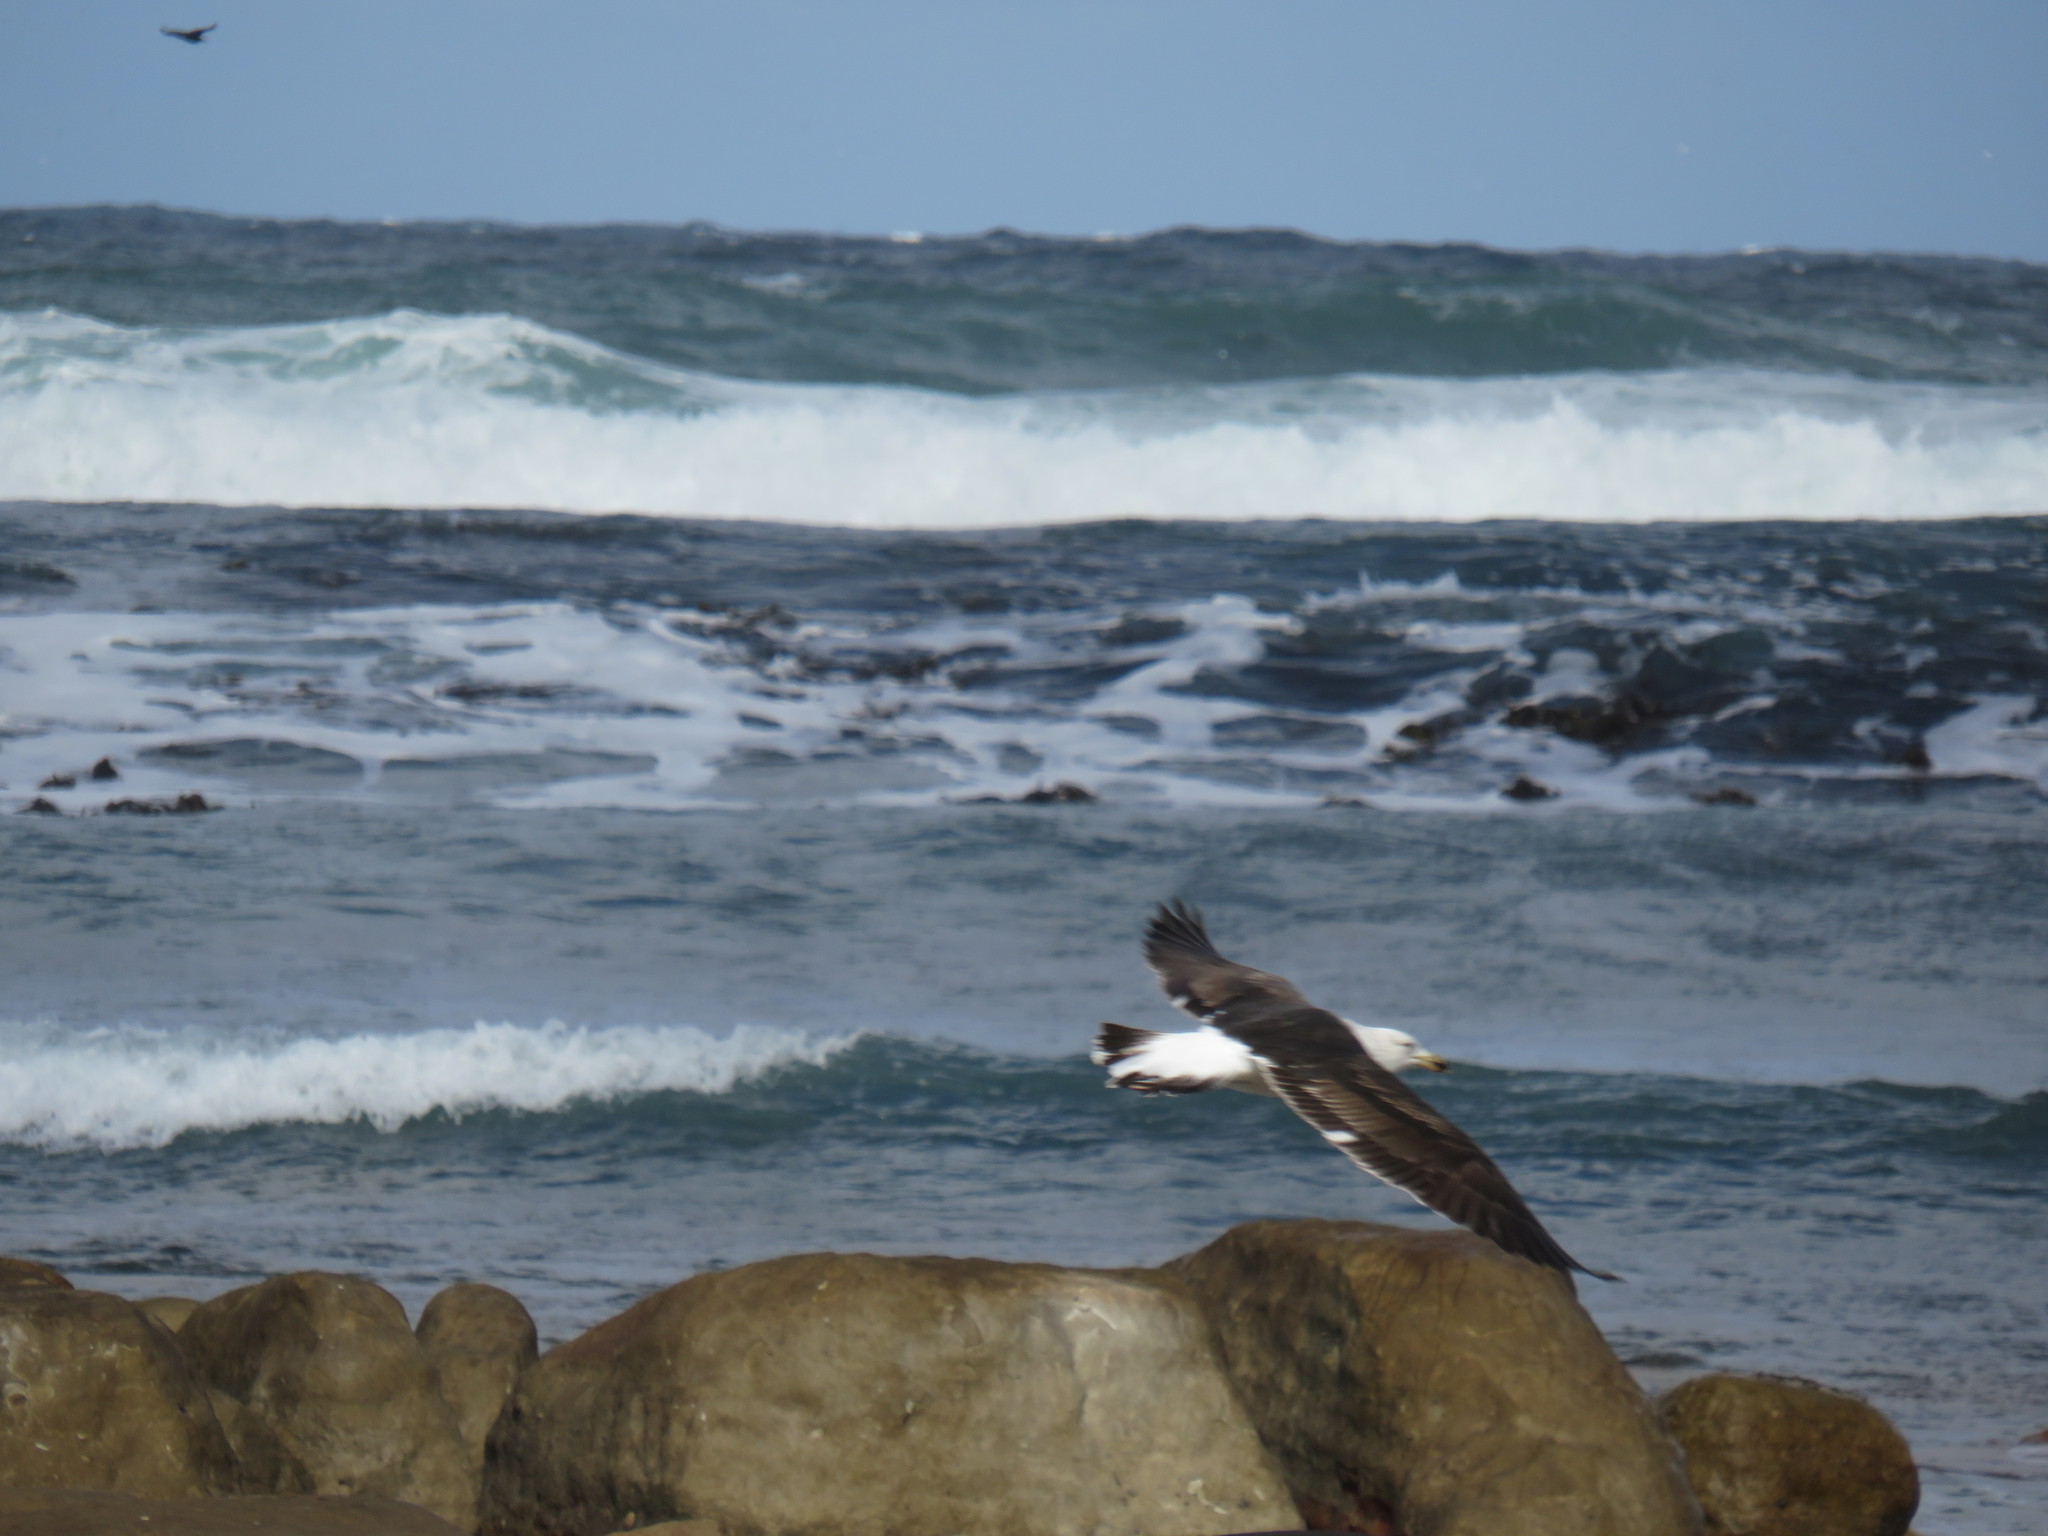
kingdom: Animalia
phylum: Chordata
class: Aves
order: Charadriiformes
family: Laridae
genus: Larus
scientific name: Larus dominicanus
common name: Kelp gull
